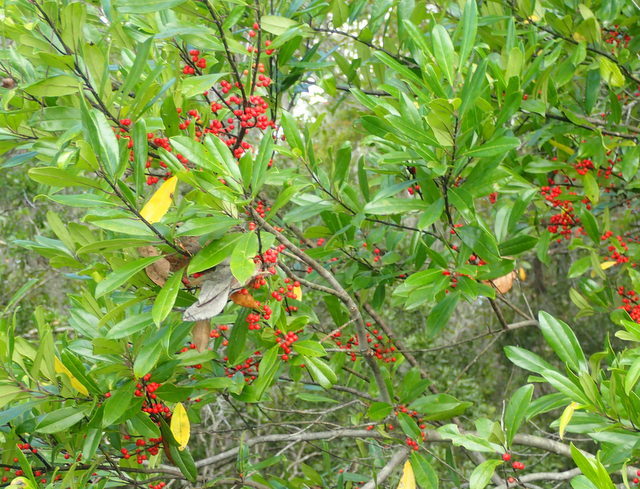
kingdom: Plantae
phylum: Tracheophyta
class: Magnoliopsida
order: Aquifoliales
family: Aquifoliaceae
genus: Ilex
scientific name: Ilex cassine
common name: Dahoon
